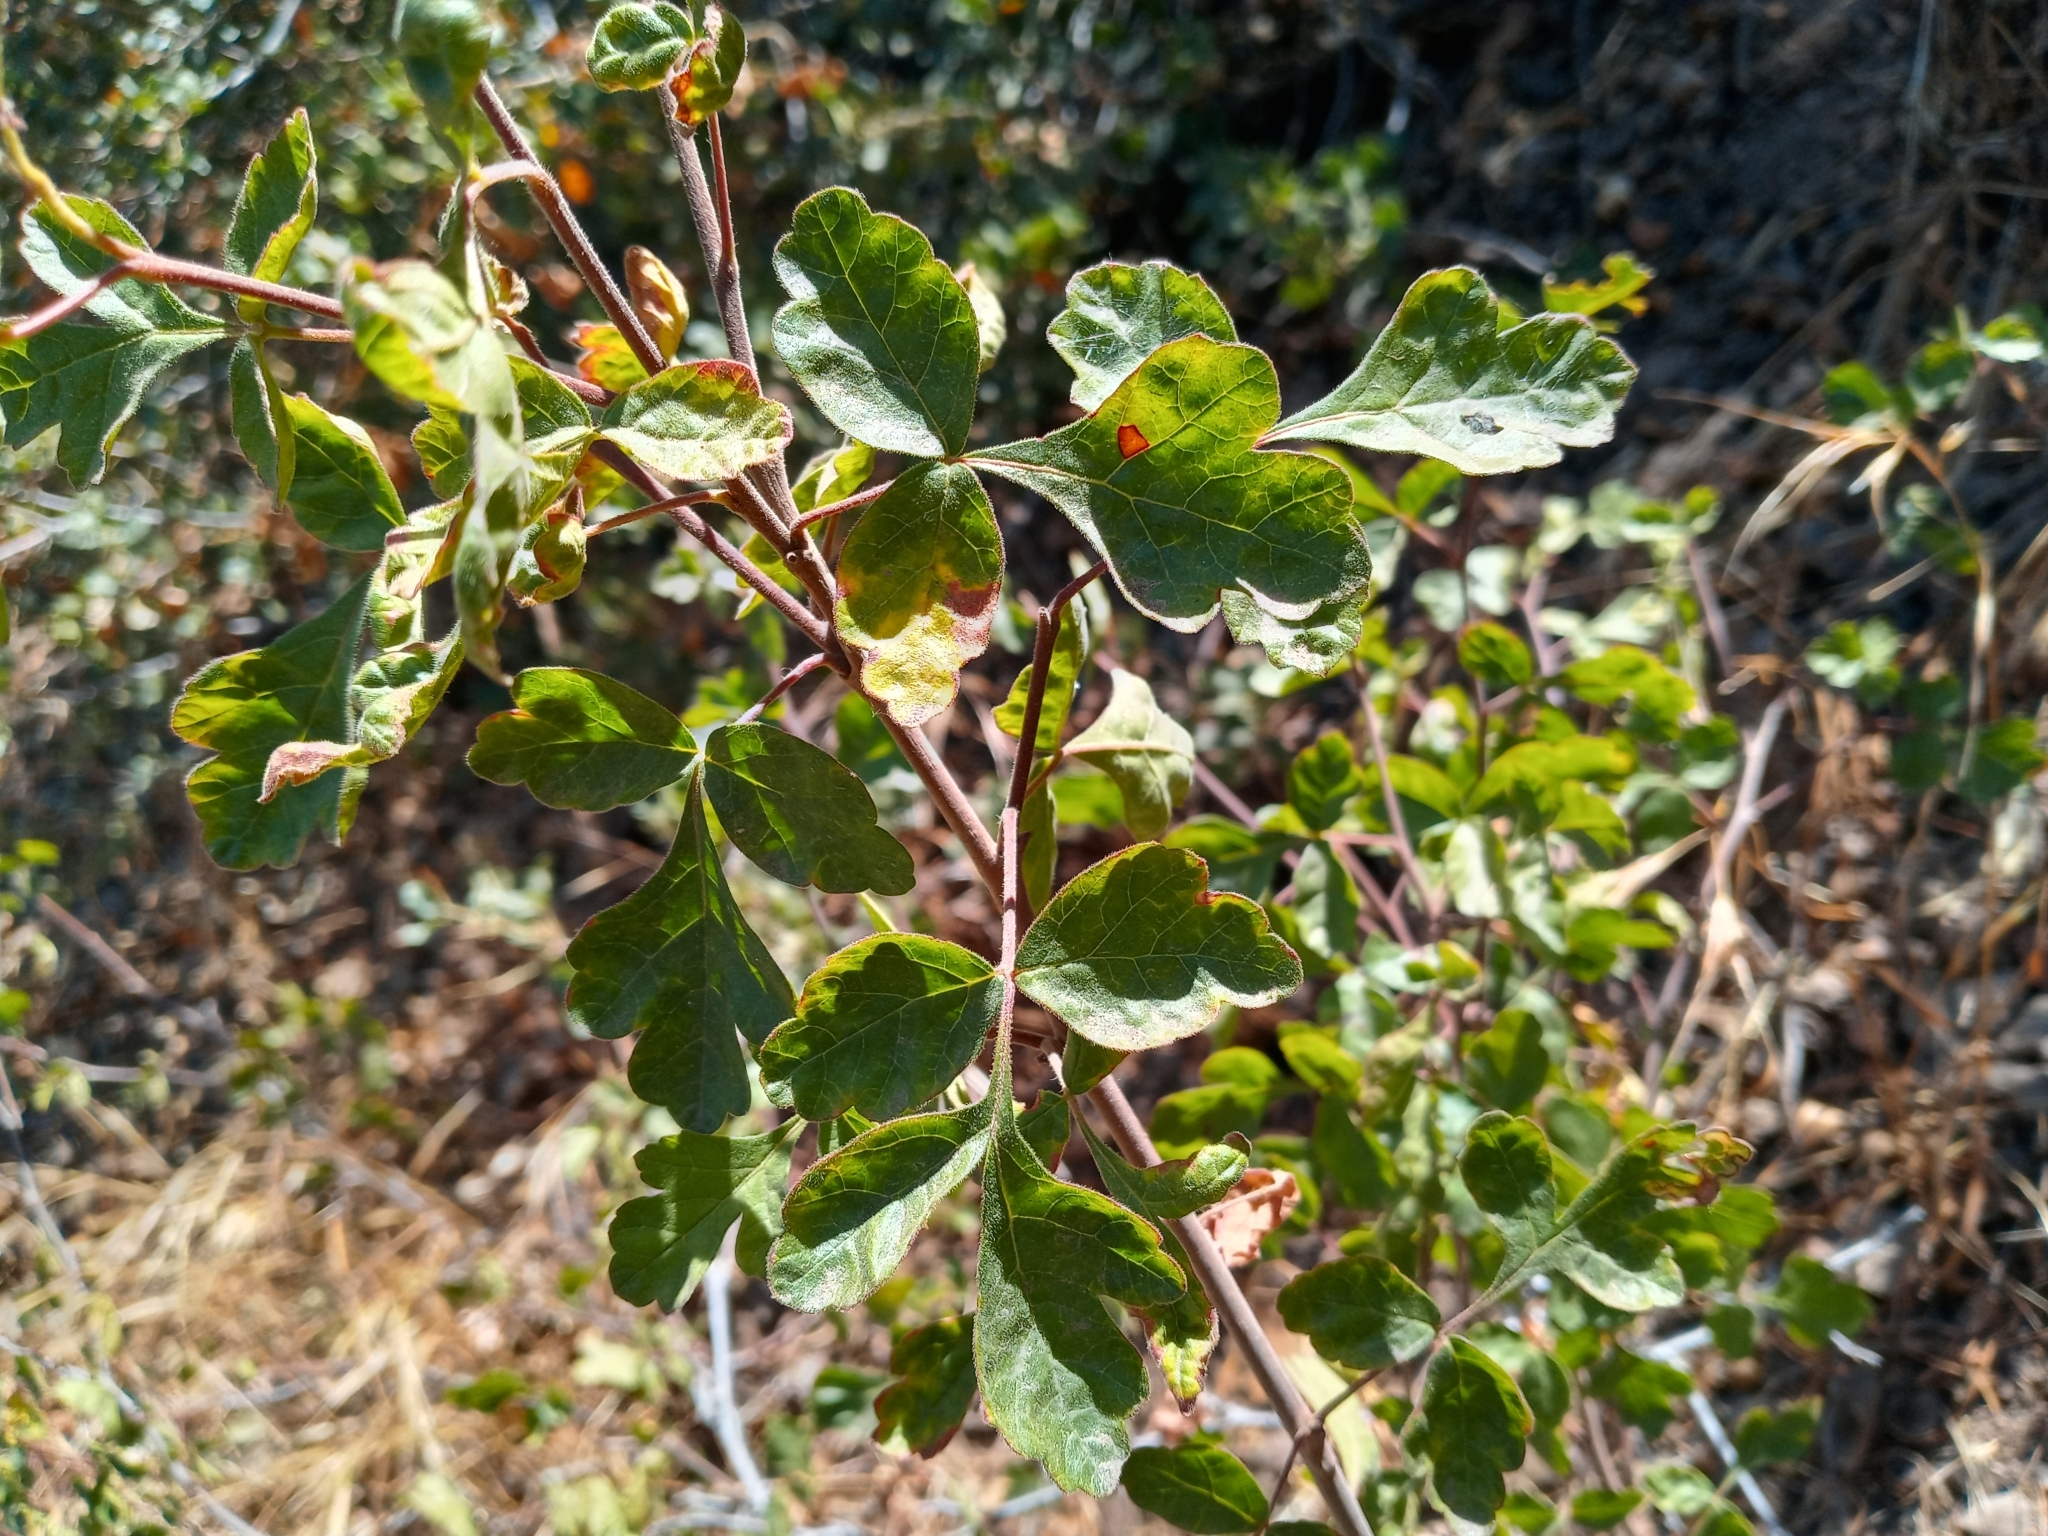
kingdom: Plantae
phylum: Tracheophyta
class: Magnoliopsida
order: Sapindales
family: Anacardiaceae
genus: Rhus
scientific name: Rhus aromatica
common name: Aromatic sumac
